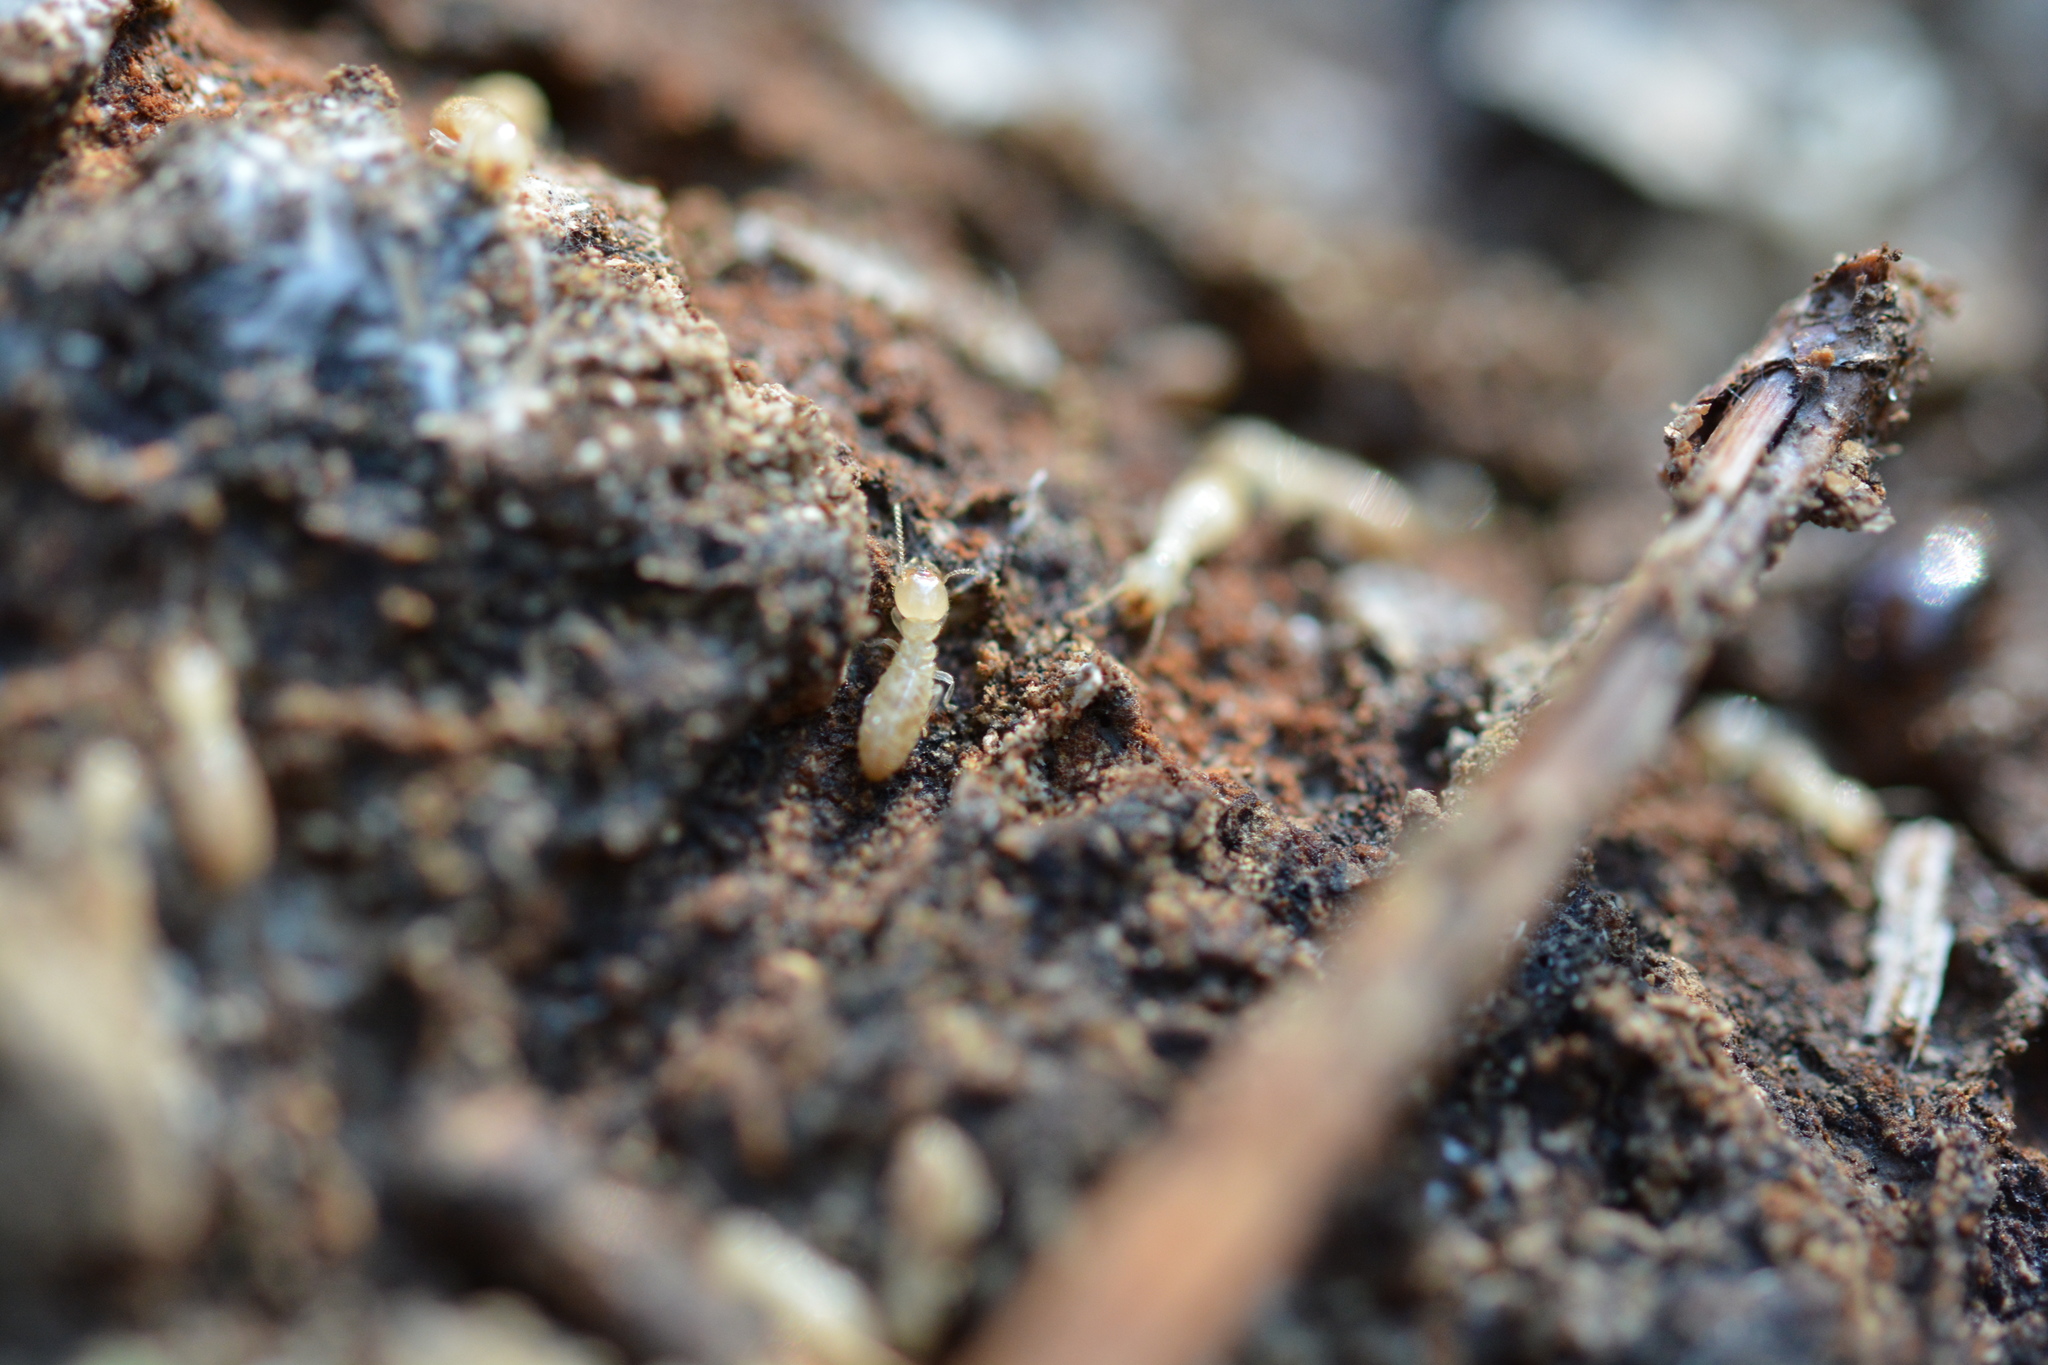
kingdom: Animalia
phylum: Arthropoda
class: Insecta
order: Blattodea
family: Rhinotermitidae
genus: Reticulitermes
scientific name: Reticulitermes flavipes
